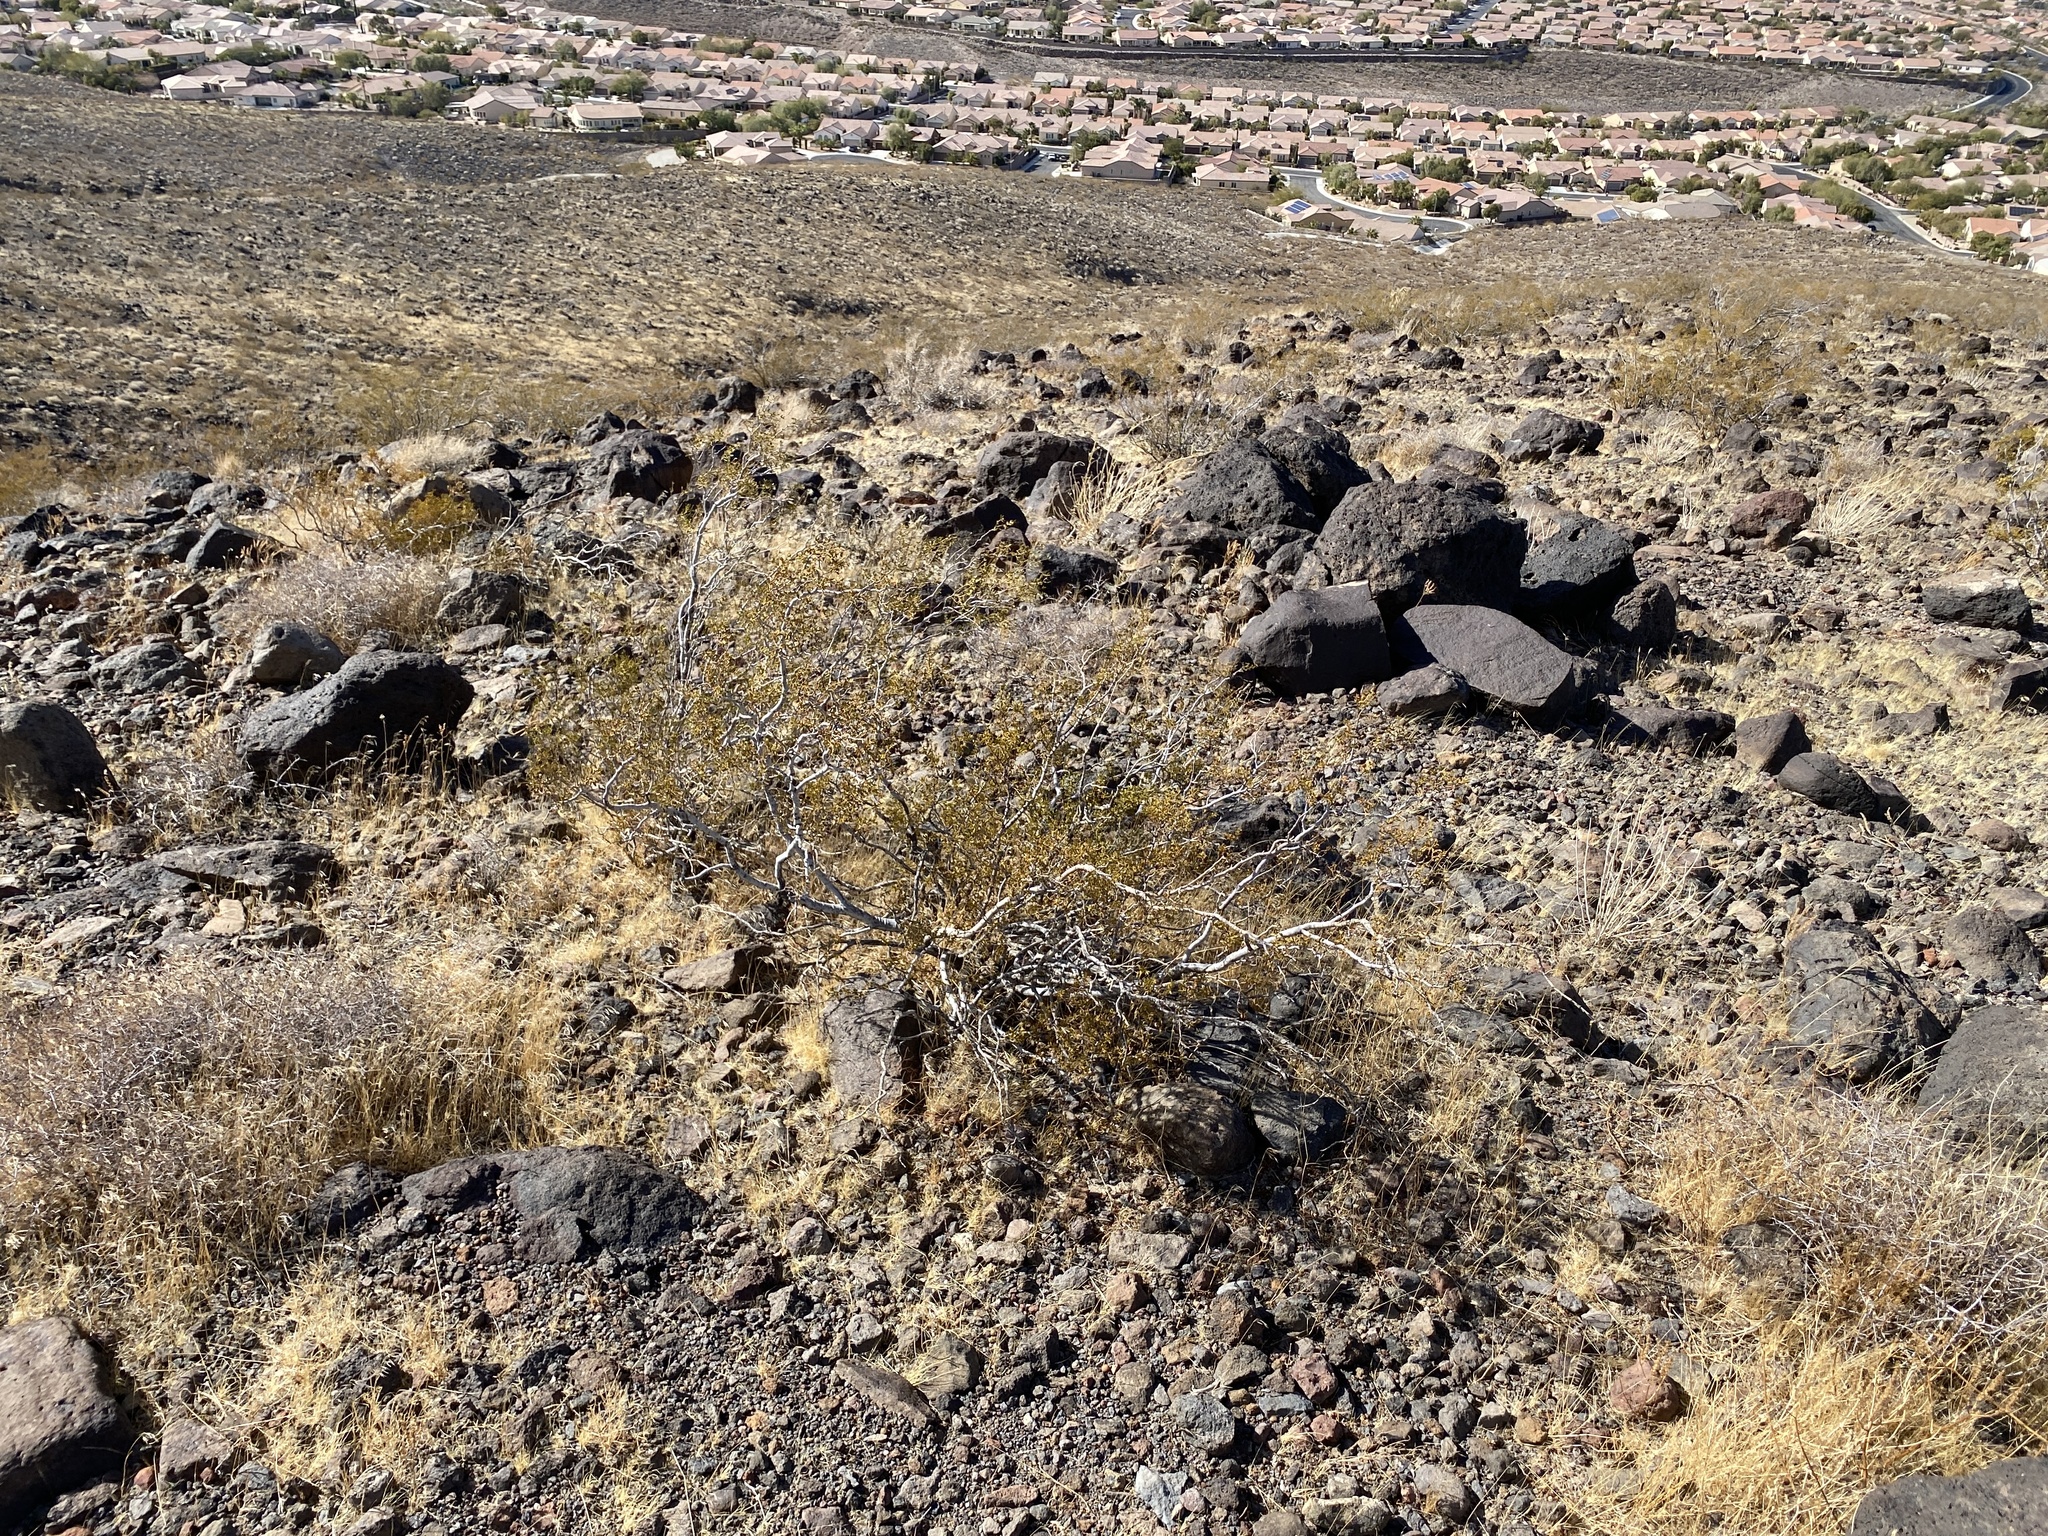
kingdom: Plantae
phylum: Tracheophyta
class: Magnoliopsida
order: Zygophyllales
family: Zygophyllaceae
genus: Larrea
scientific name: Larrea tridentata
